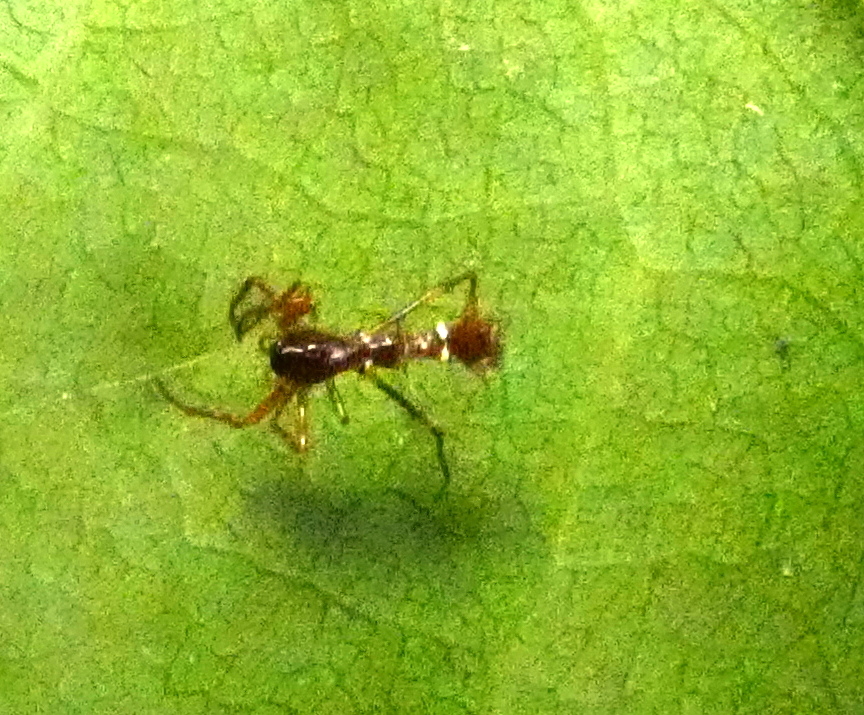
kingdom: Animalia
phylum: Arthropoda
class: Arachnida
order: Araneae
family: Araneidae
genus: Micrathena
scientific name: Micrathena schreibersi
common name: Orb weavers
